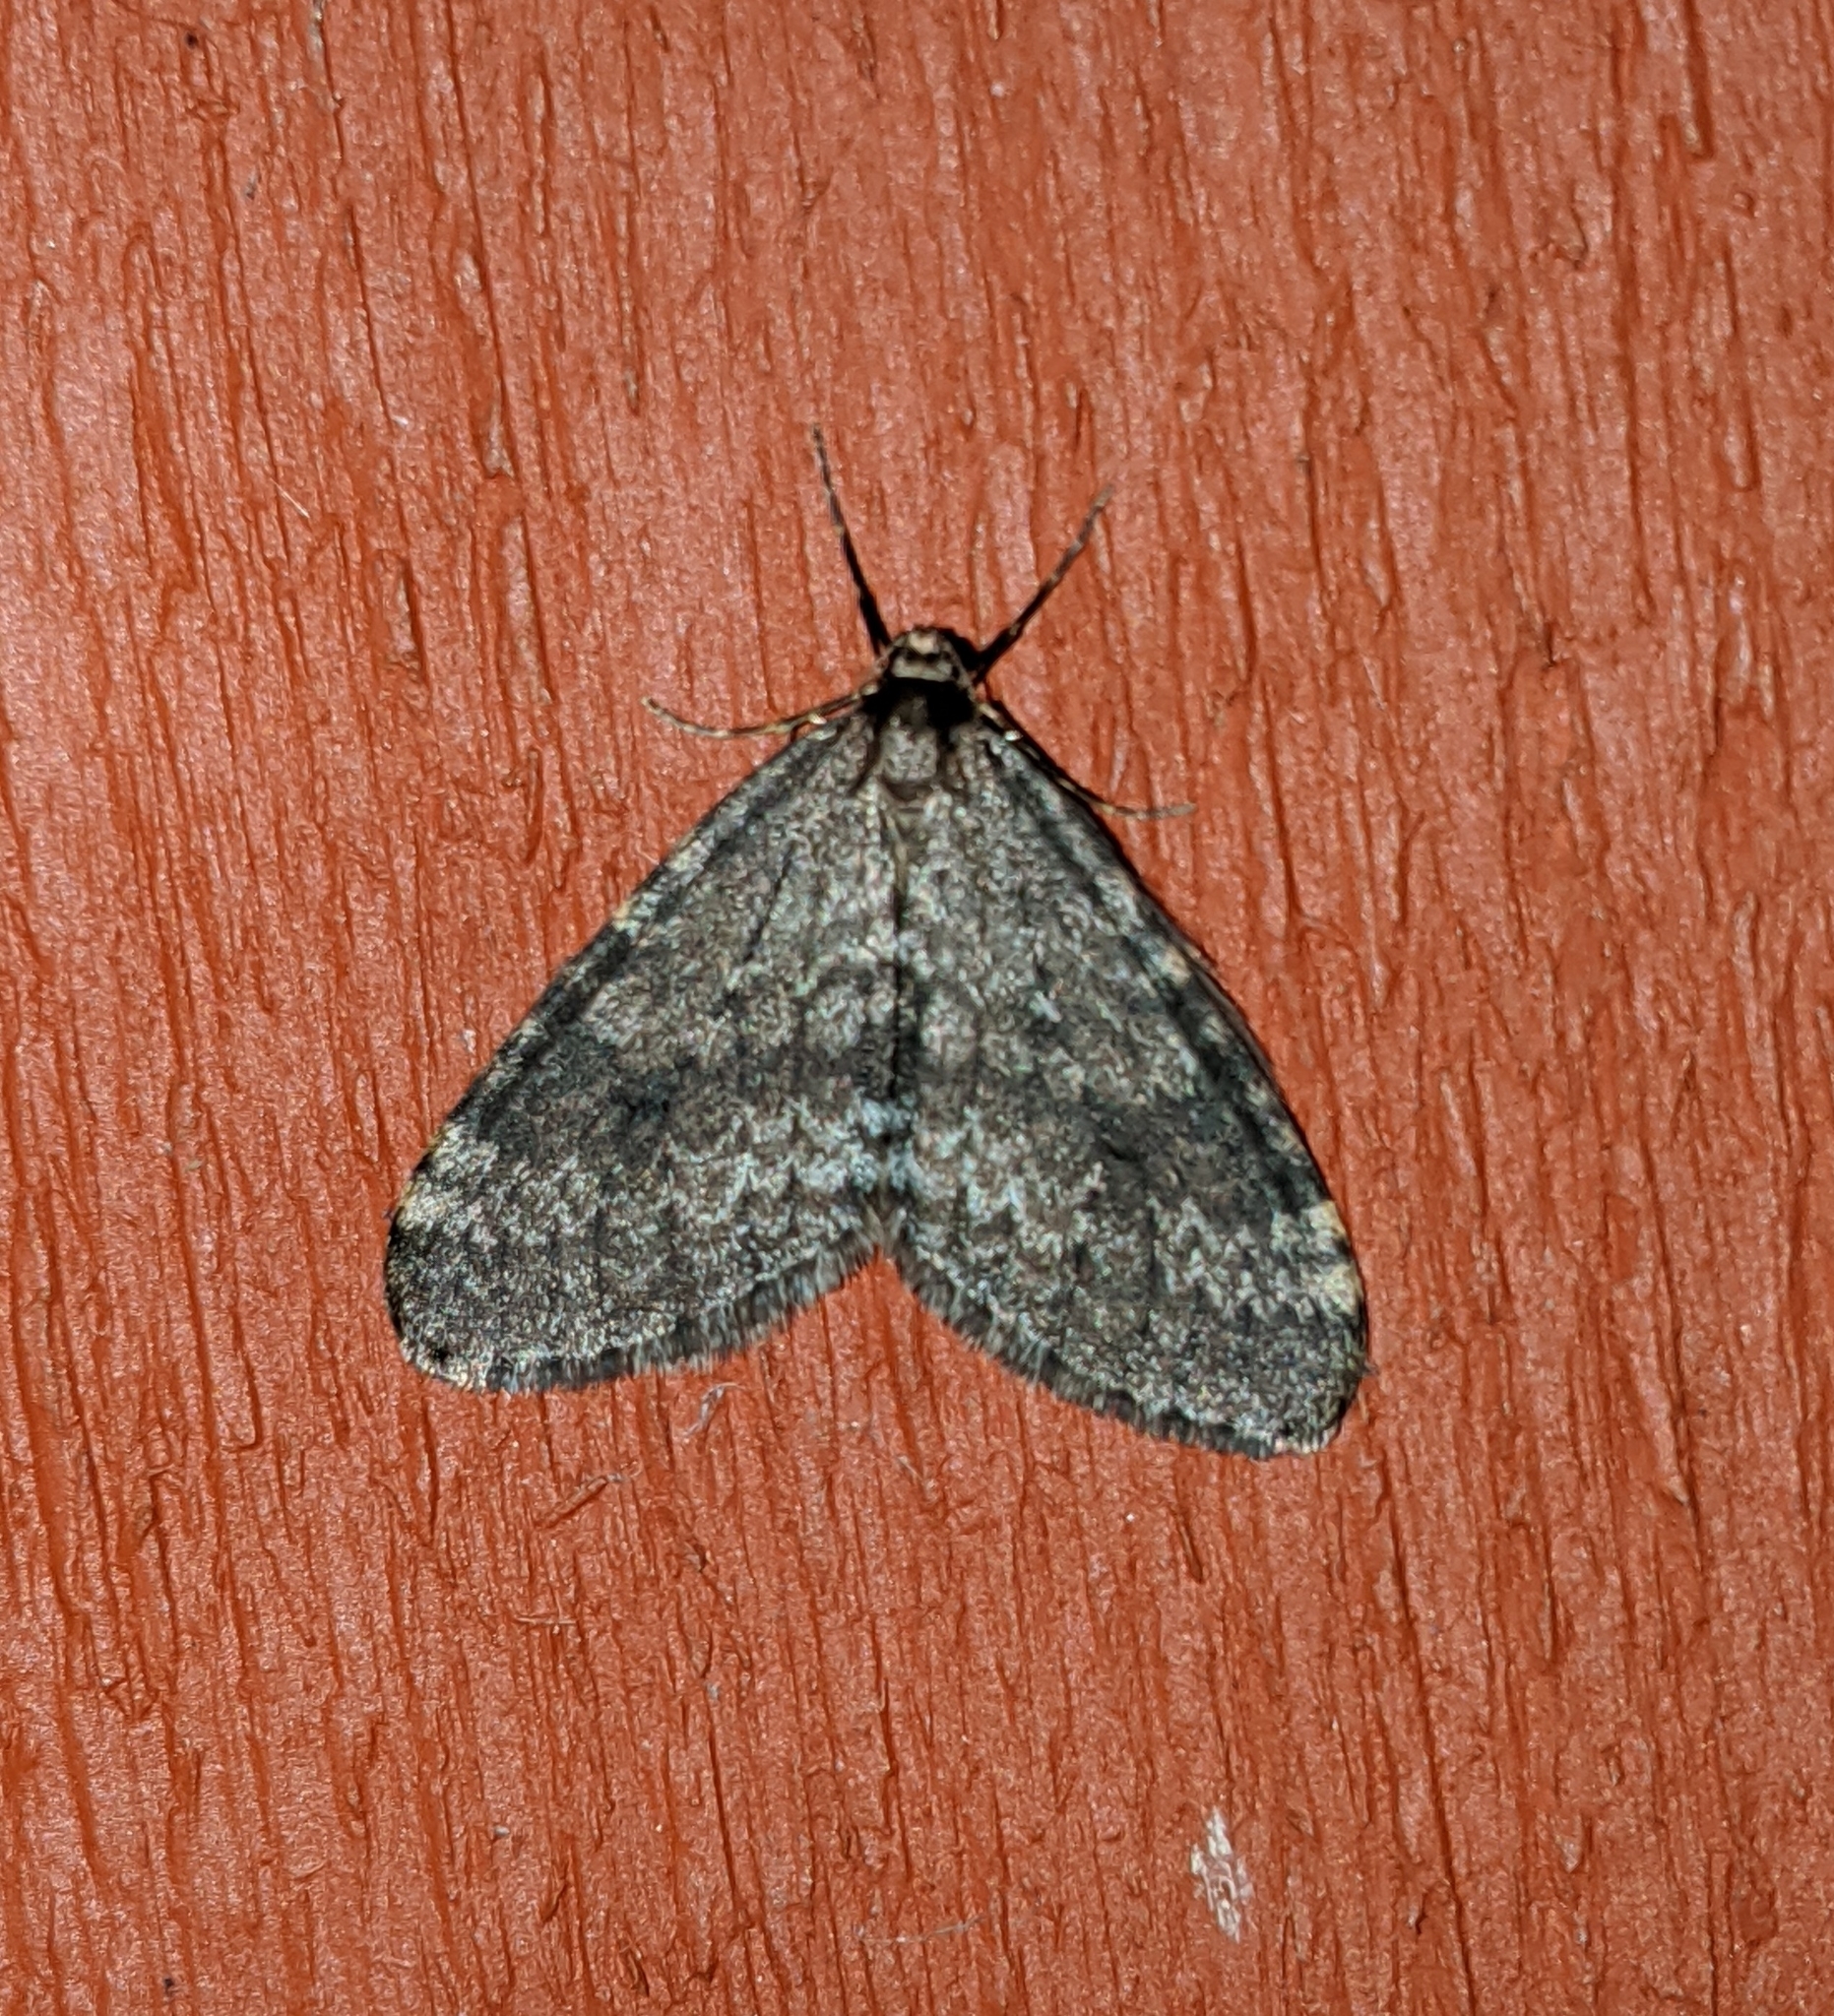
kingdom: Animalia
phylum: Arthropoda
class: Insecta
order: Lepidoptera
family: Geometridae
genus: Operophtera
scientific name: Operophtera occidentalis
